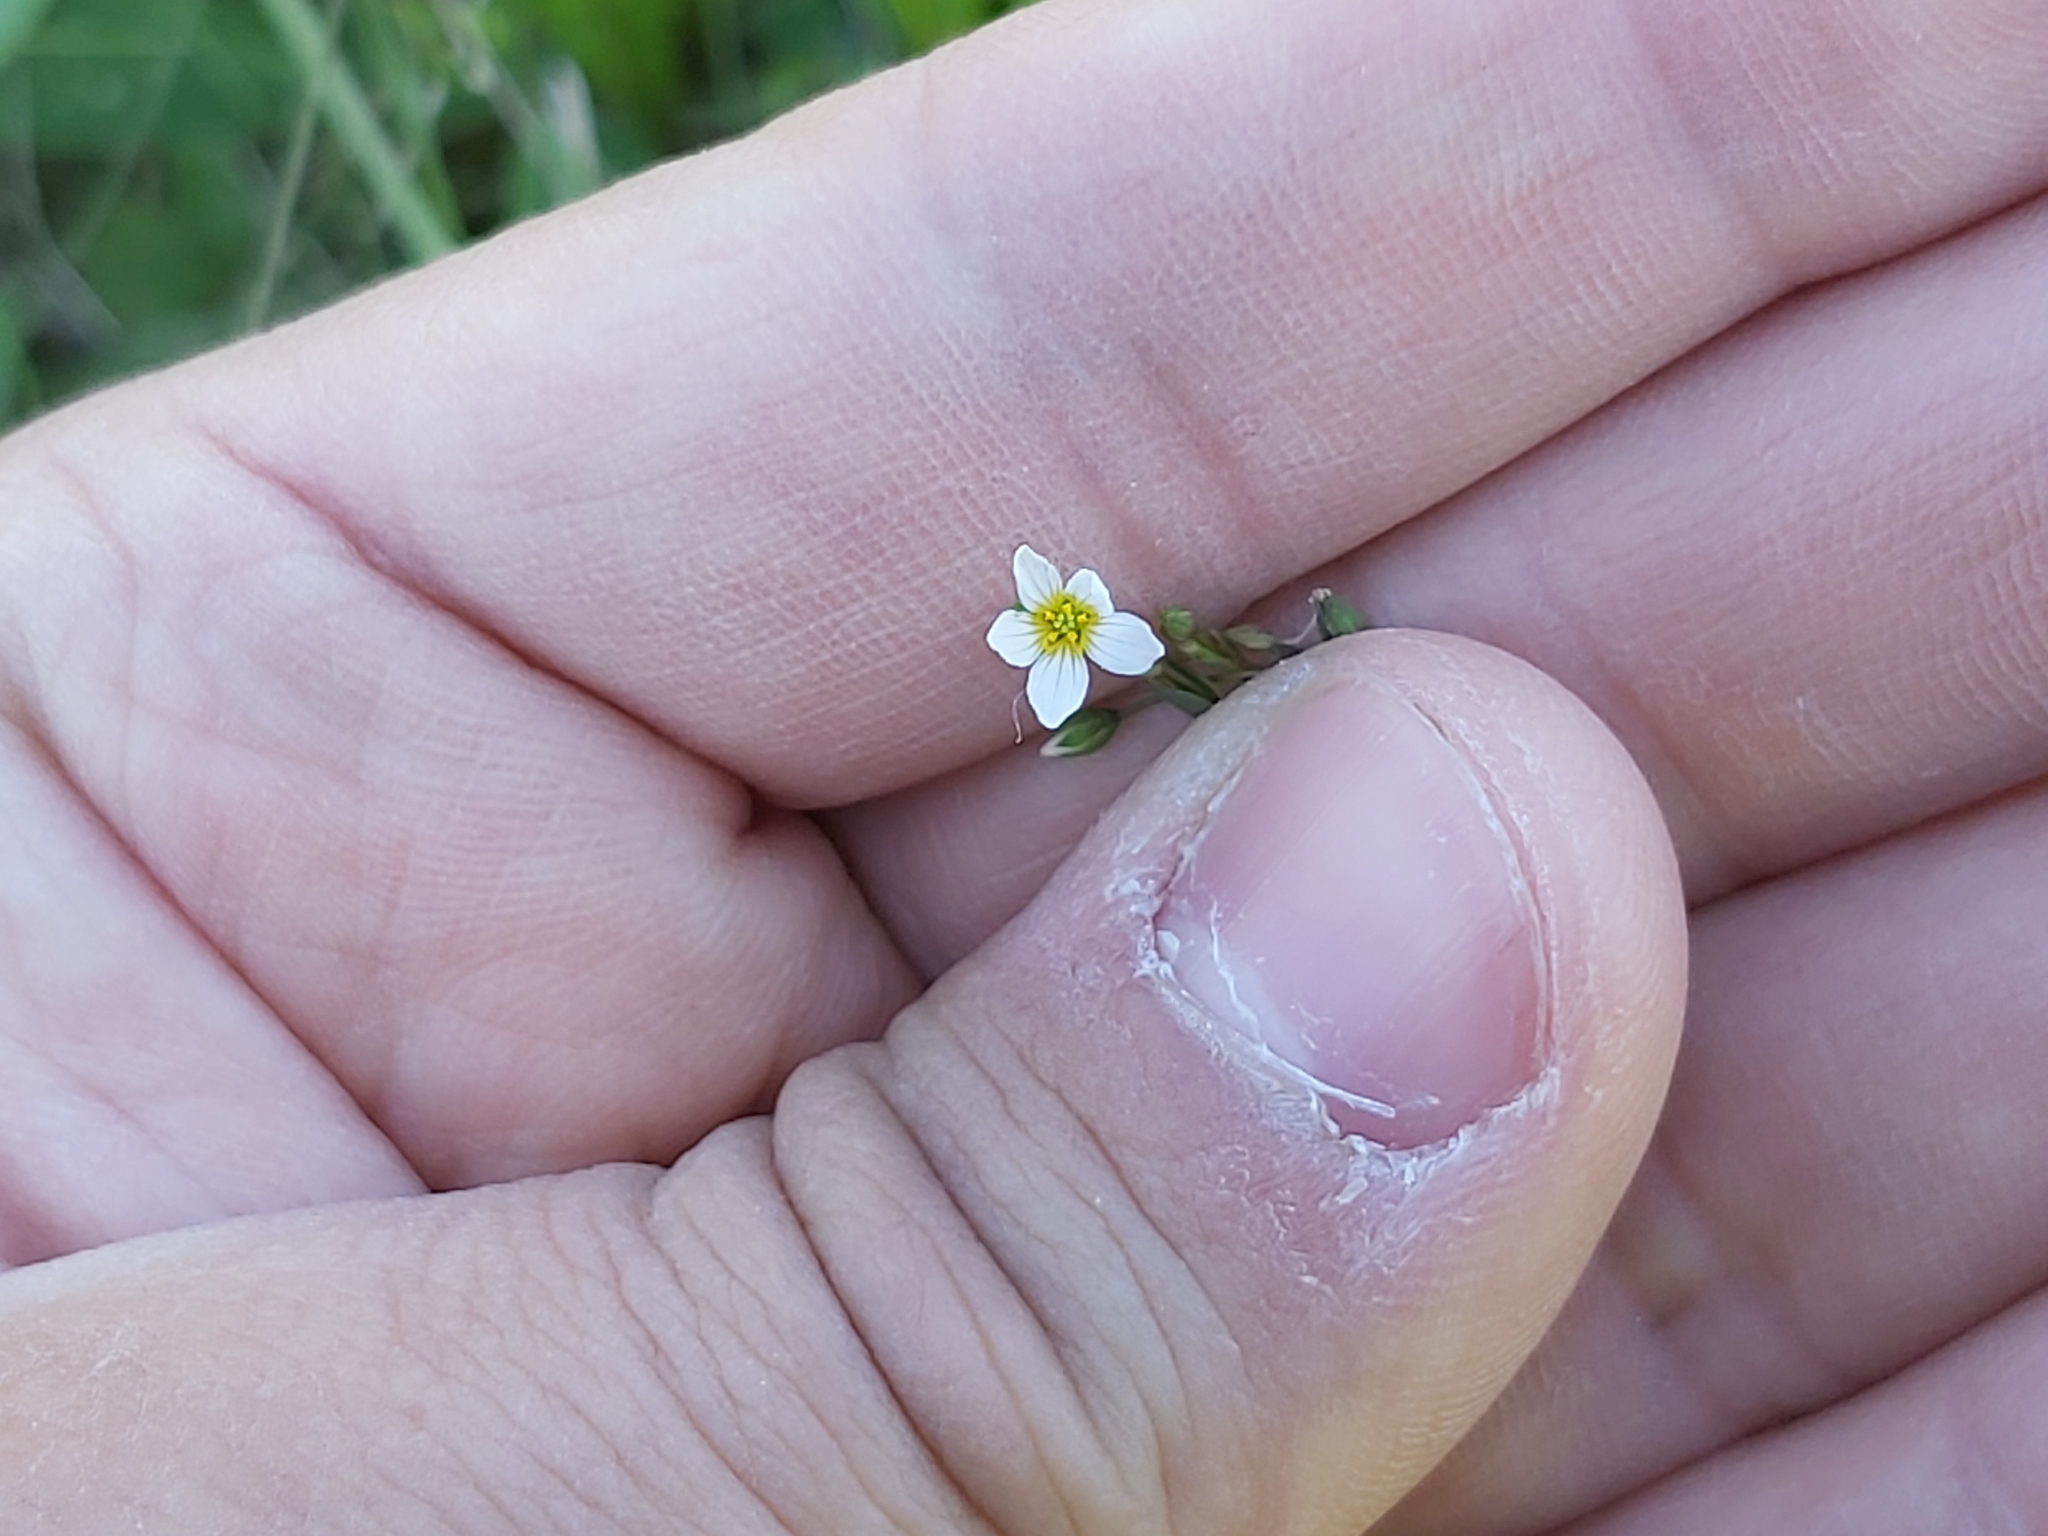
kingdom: Plantae
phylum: Tracheophyta
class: Magnoliopsida
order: Malpighiales
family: Linaceae
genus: Linum
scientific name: Linum catharticum
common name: Fairy flax
